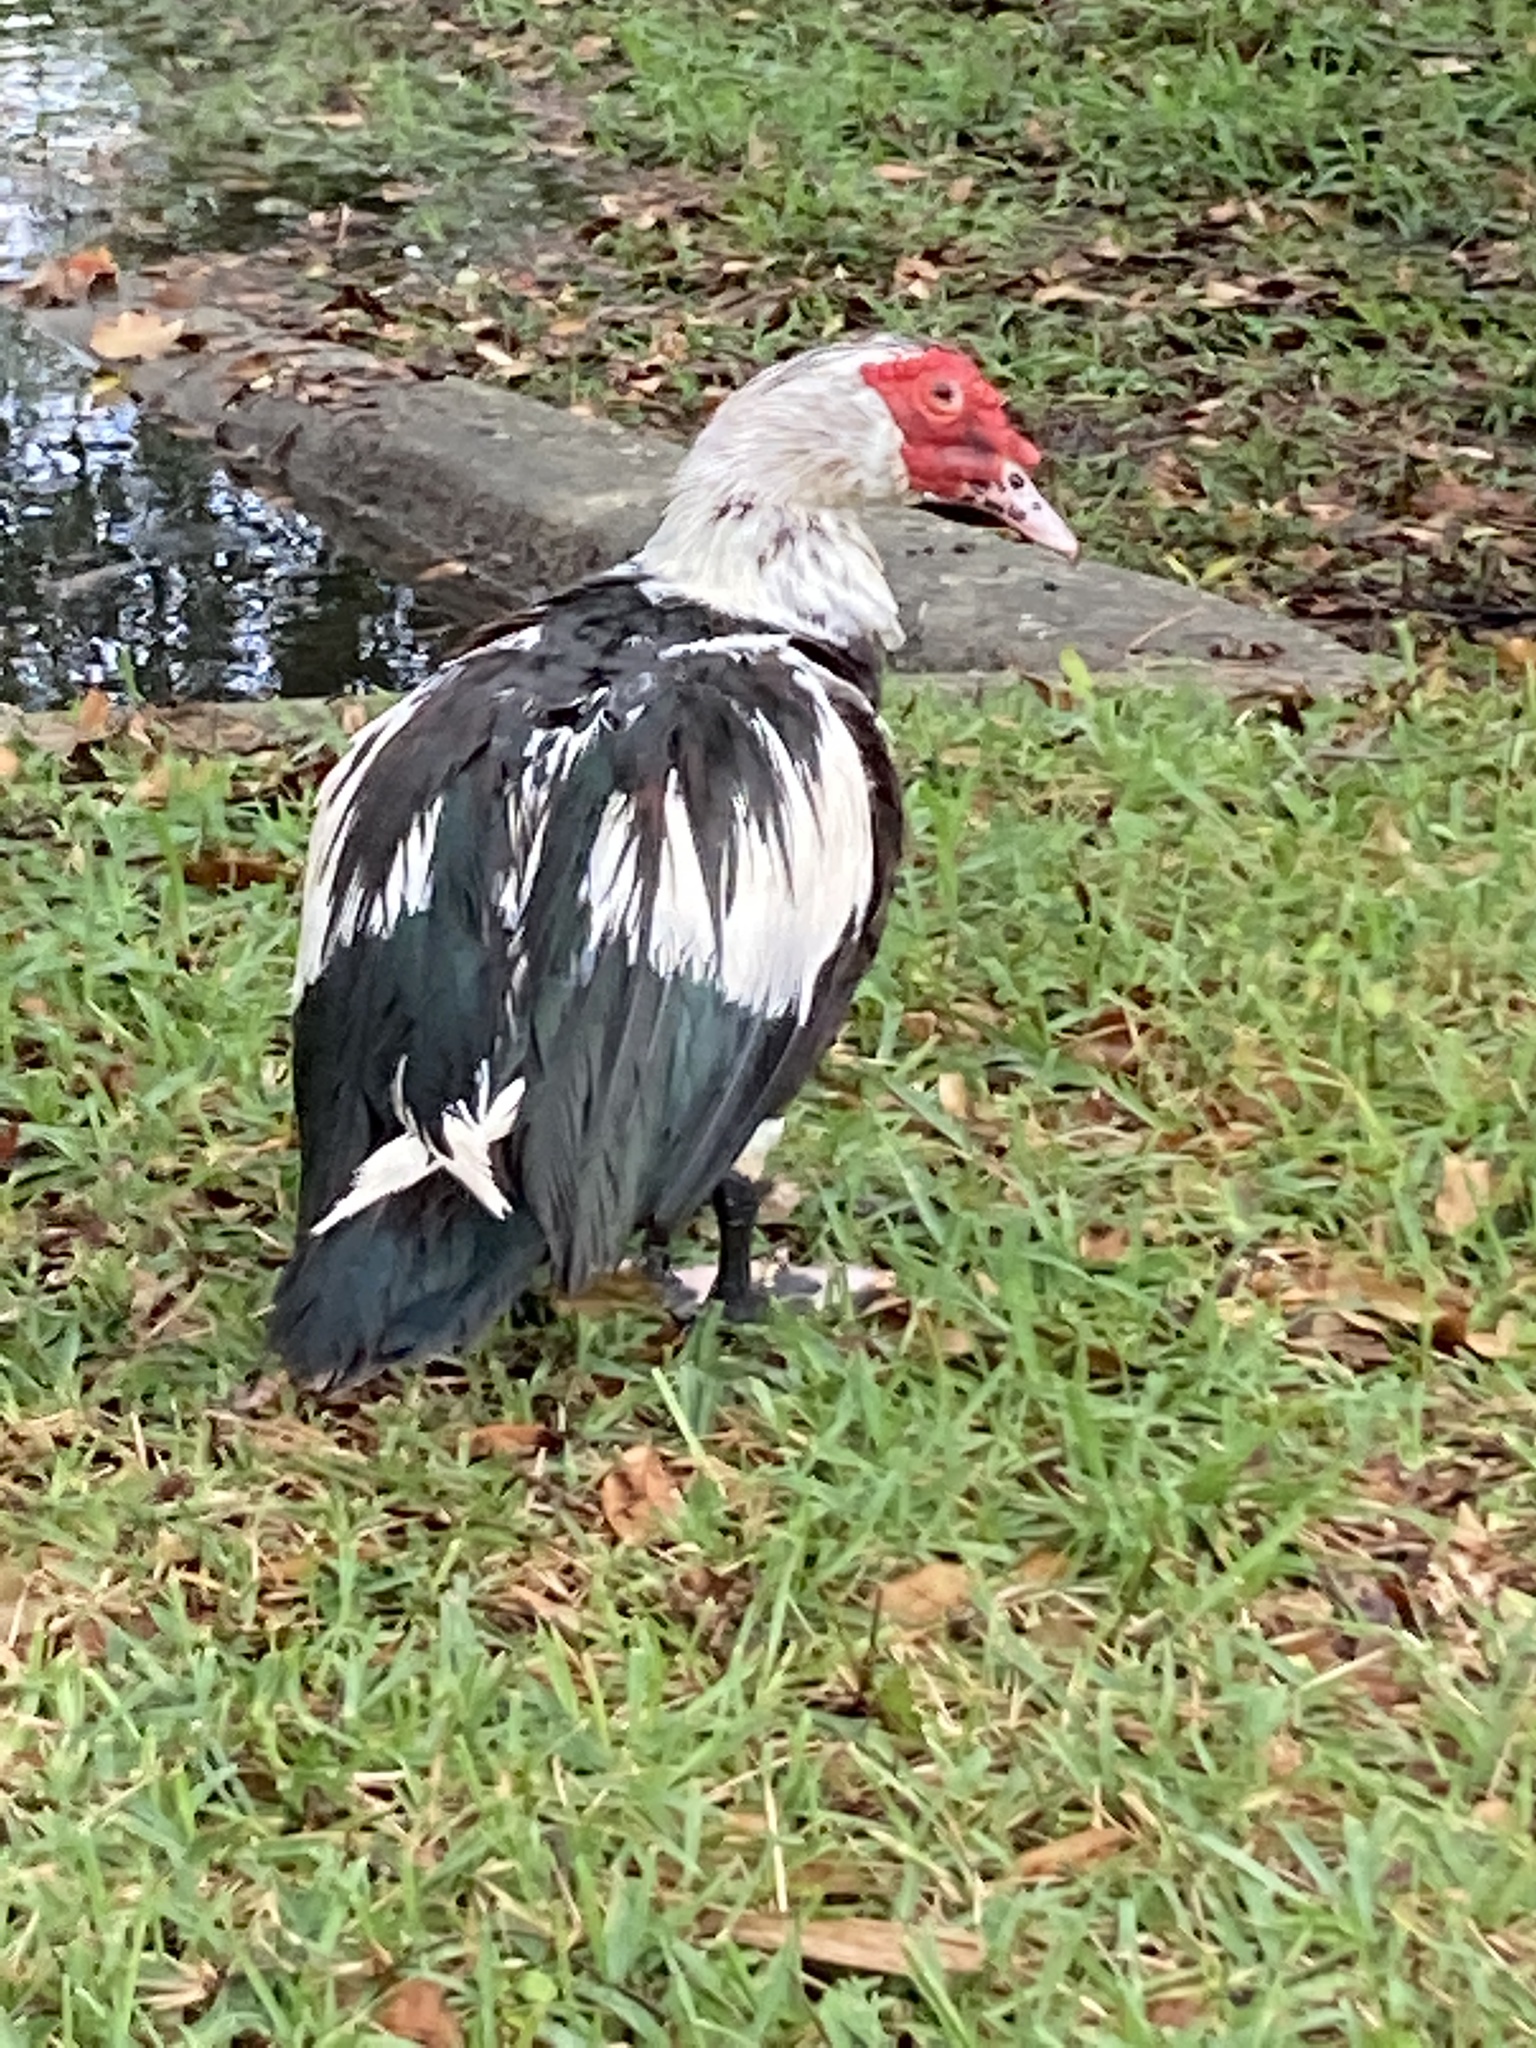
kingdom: Animalia
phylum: Chordata
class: Aves
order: Anseriformes
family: Anatidae
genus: Cairina
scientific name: Cairina moschata
